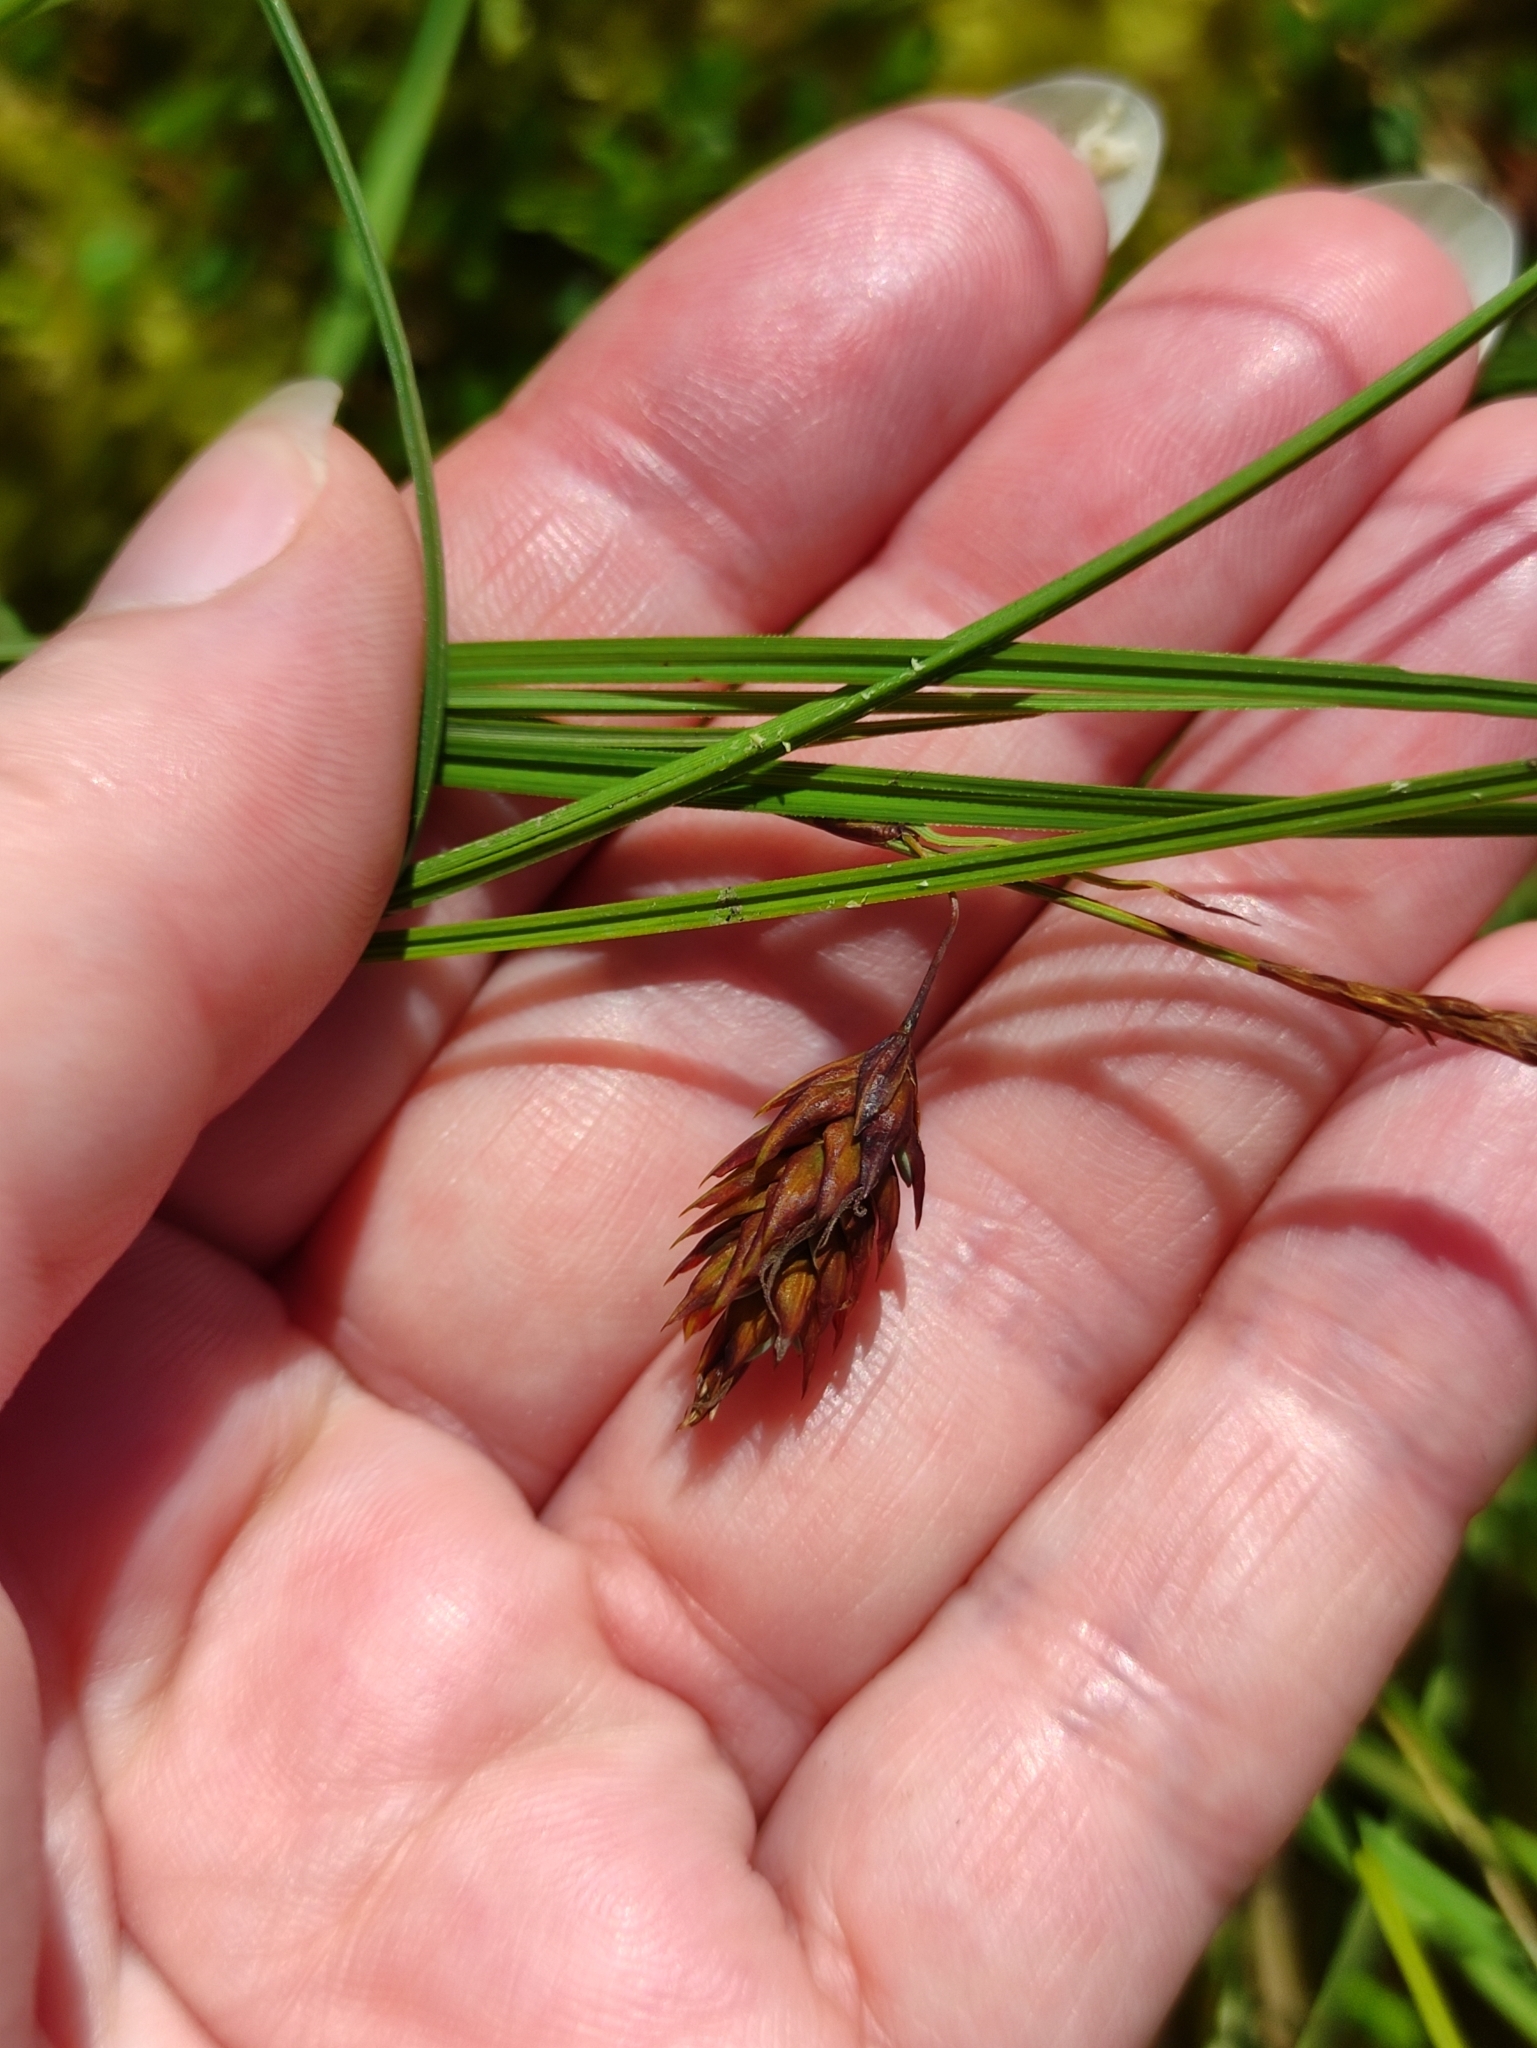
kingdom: Plantae
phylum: Tracheophyta
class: Liliopsida
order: Poales
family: Cyperaceae
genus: Carex
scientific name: Carex limosa
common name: Bog sedge
